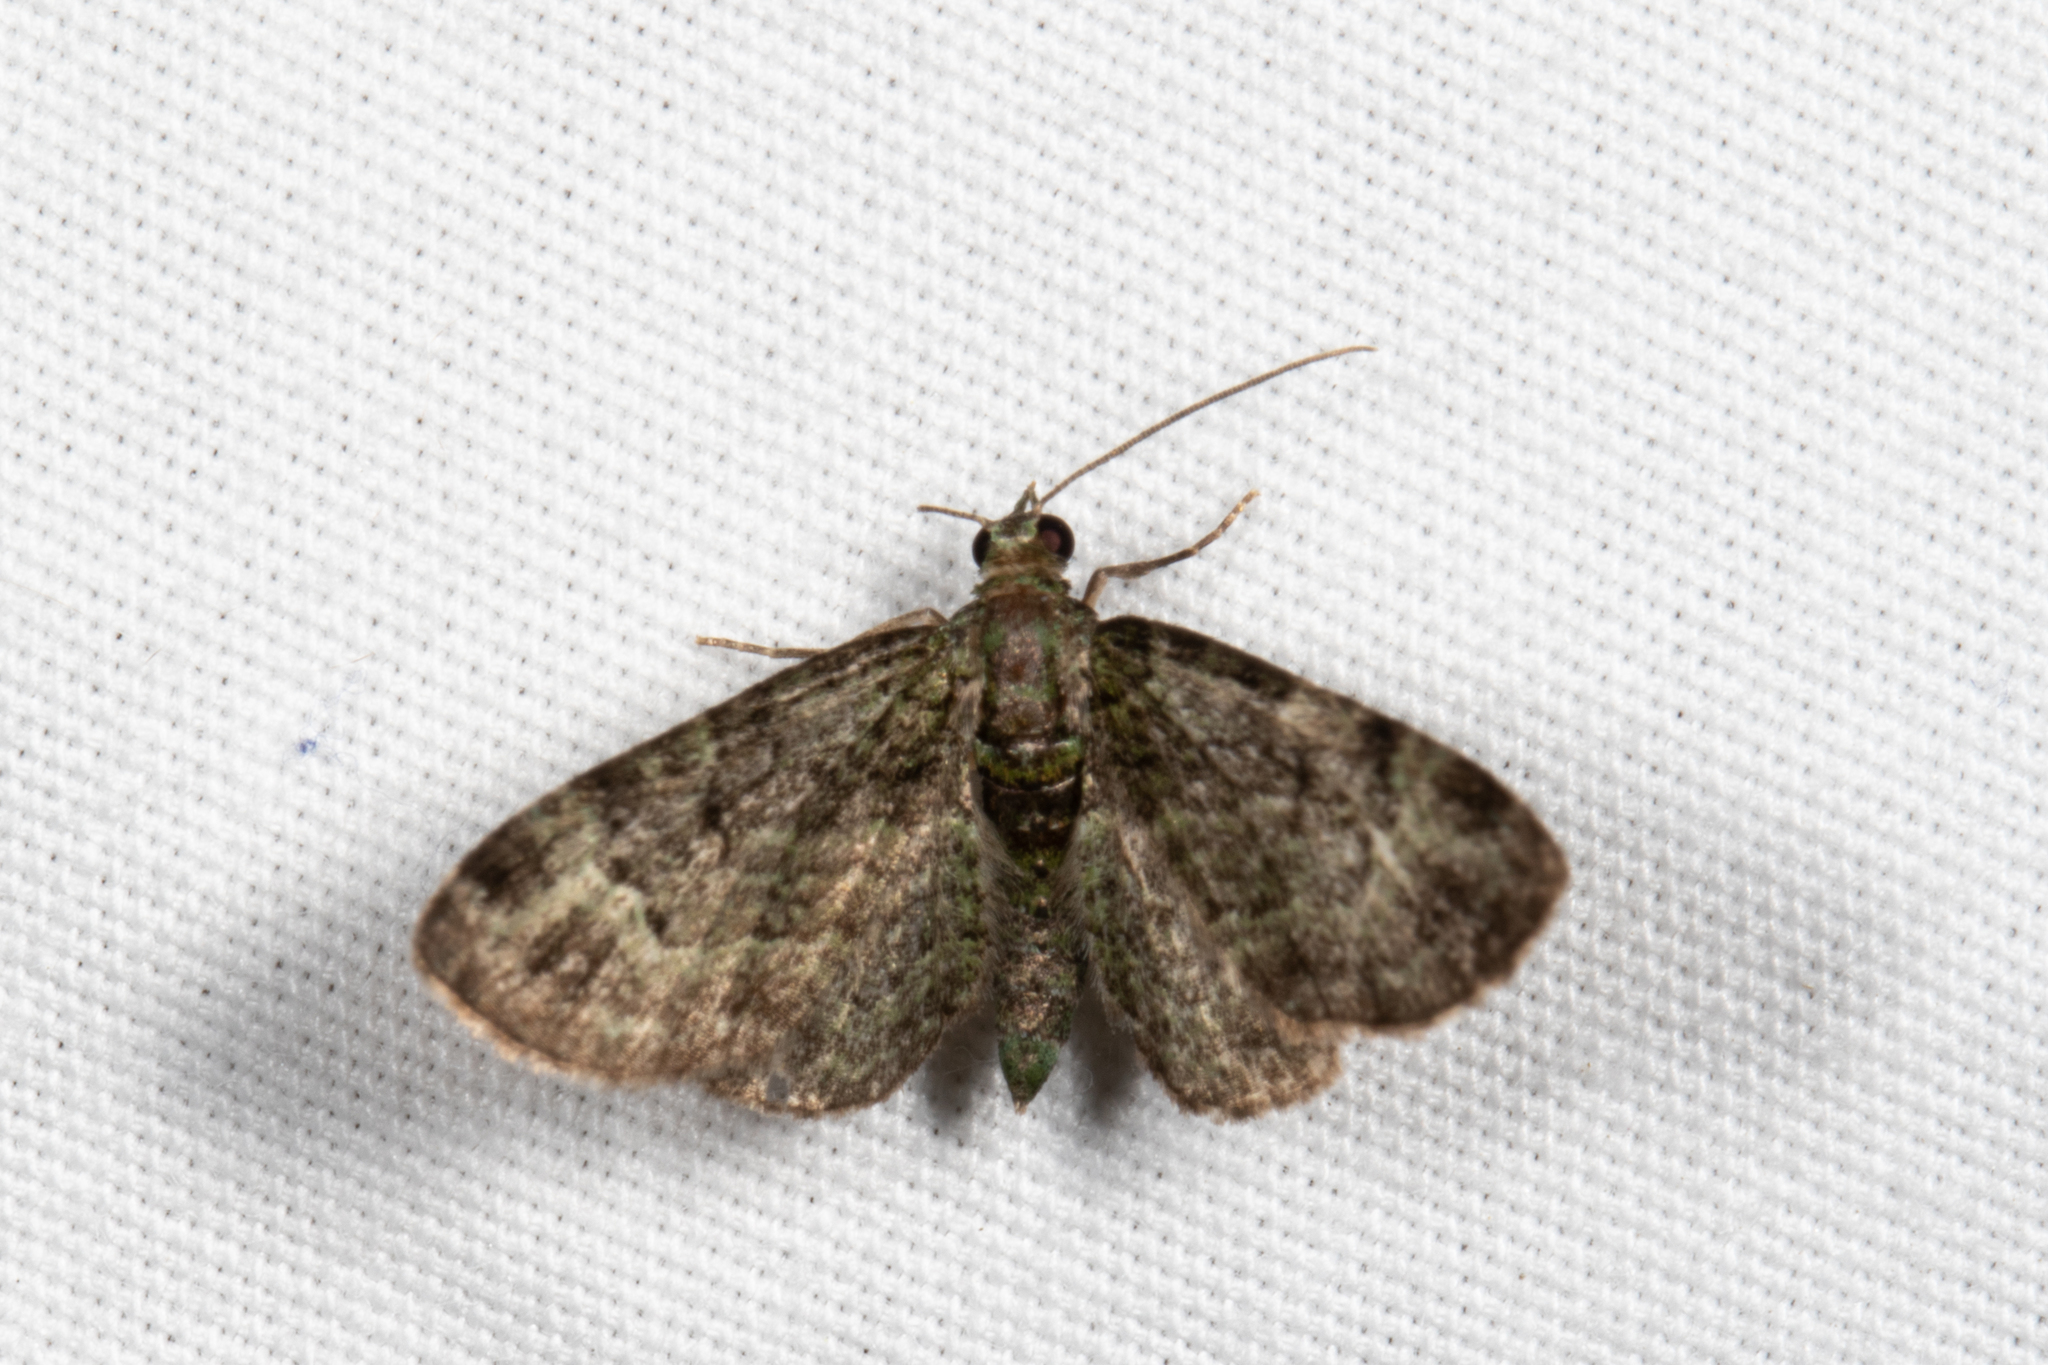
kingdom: Animalia
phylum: Arthropoda
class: Insecta
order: Lepidoptera
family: Geometridae
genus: Pasiphila
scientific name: Pasiphila rectangulata
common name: Green pug
